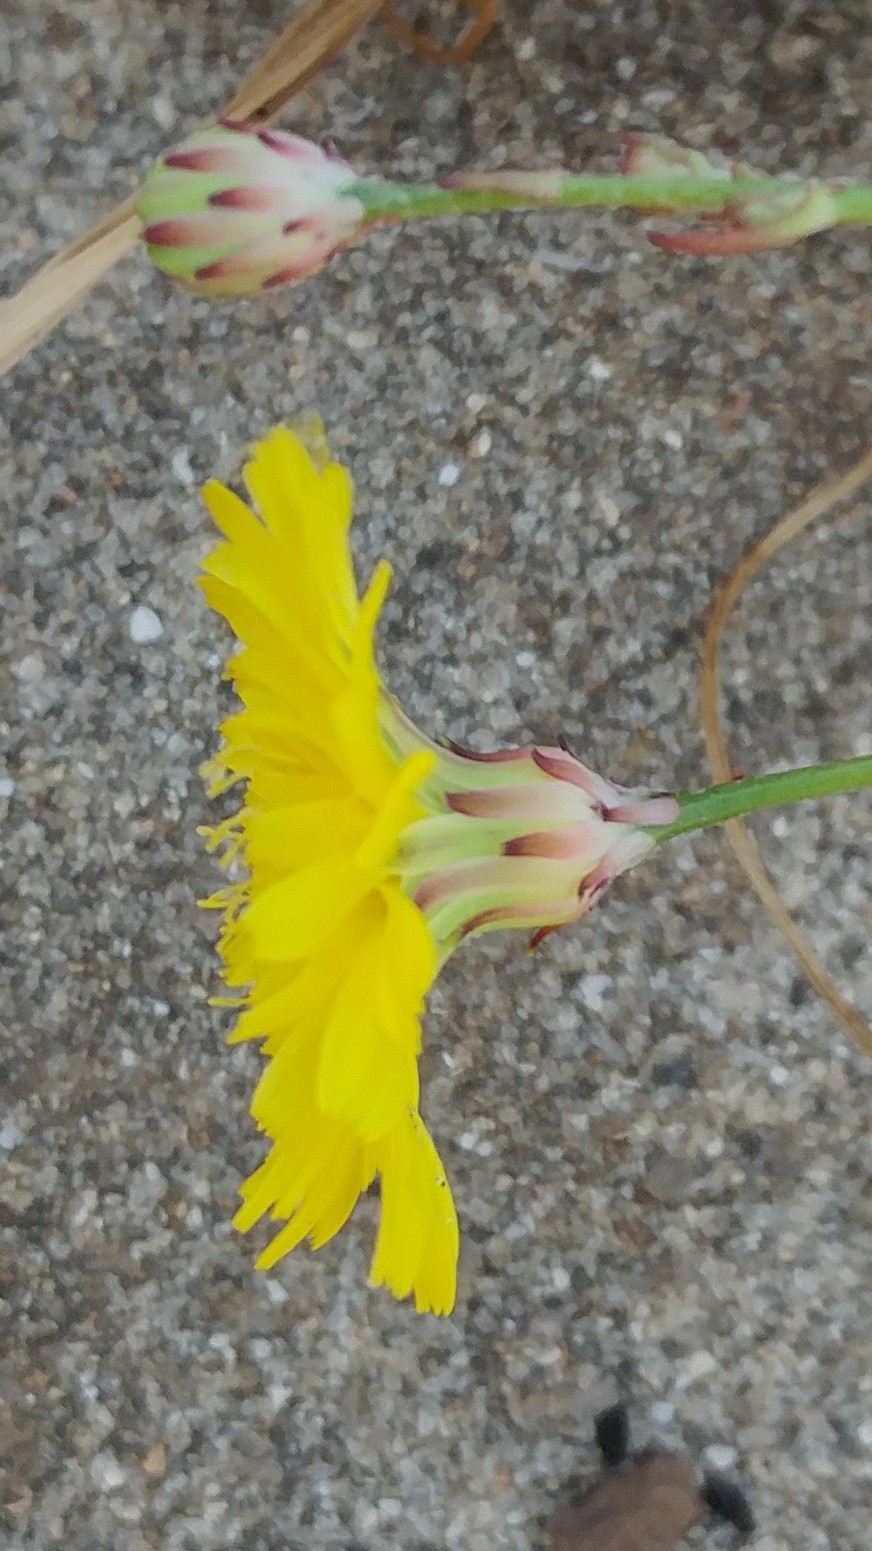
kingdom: Plantae
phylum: Tracheophyta
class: Magnoliopsida
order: Asterales
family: Asteraceae
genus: Malacothrix
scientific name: Malacothrix foliosa
